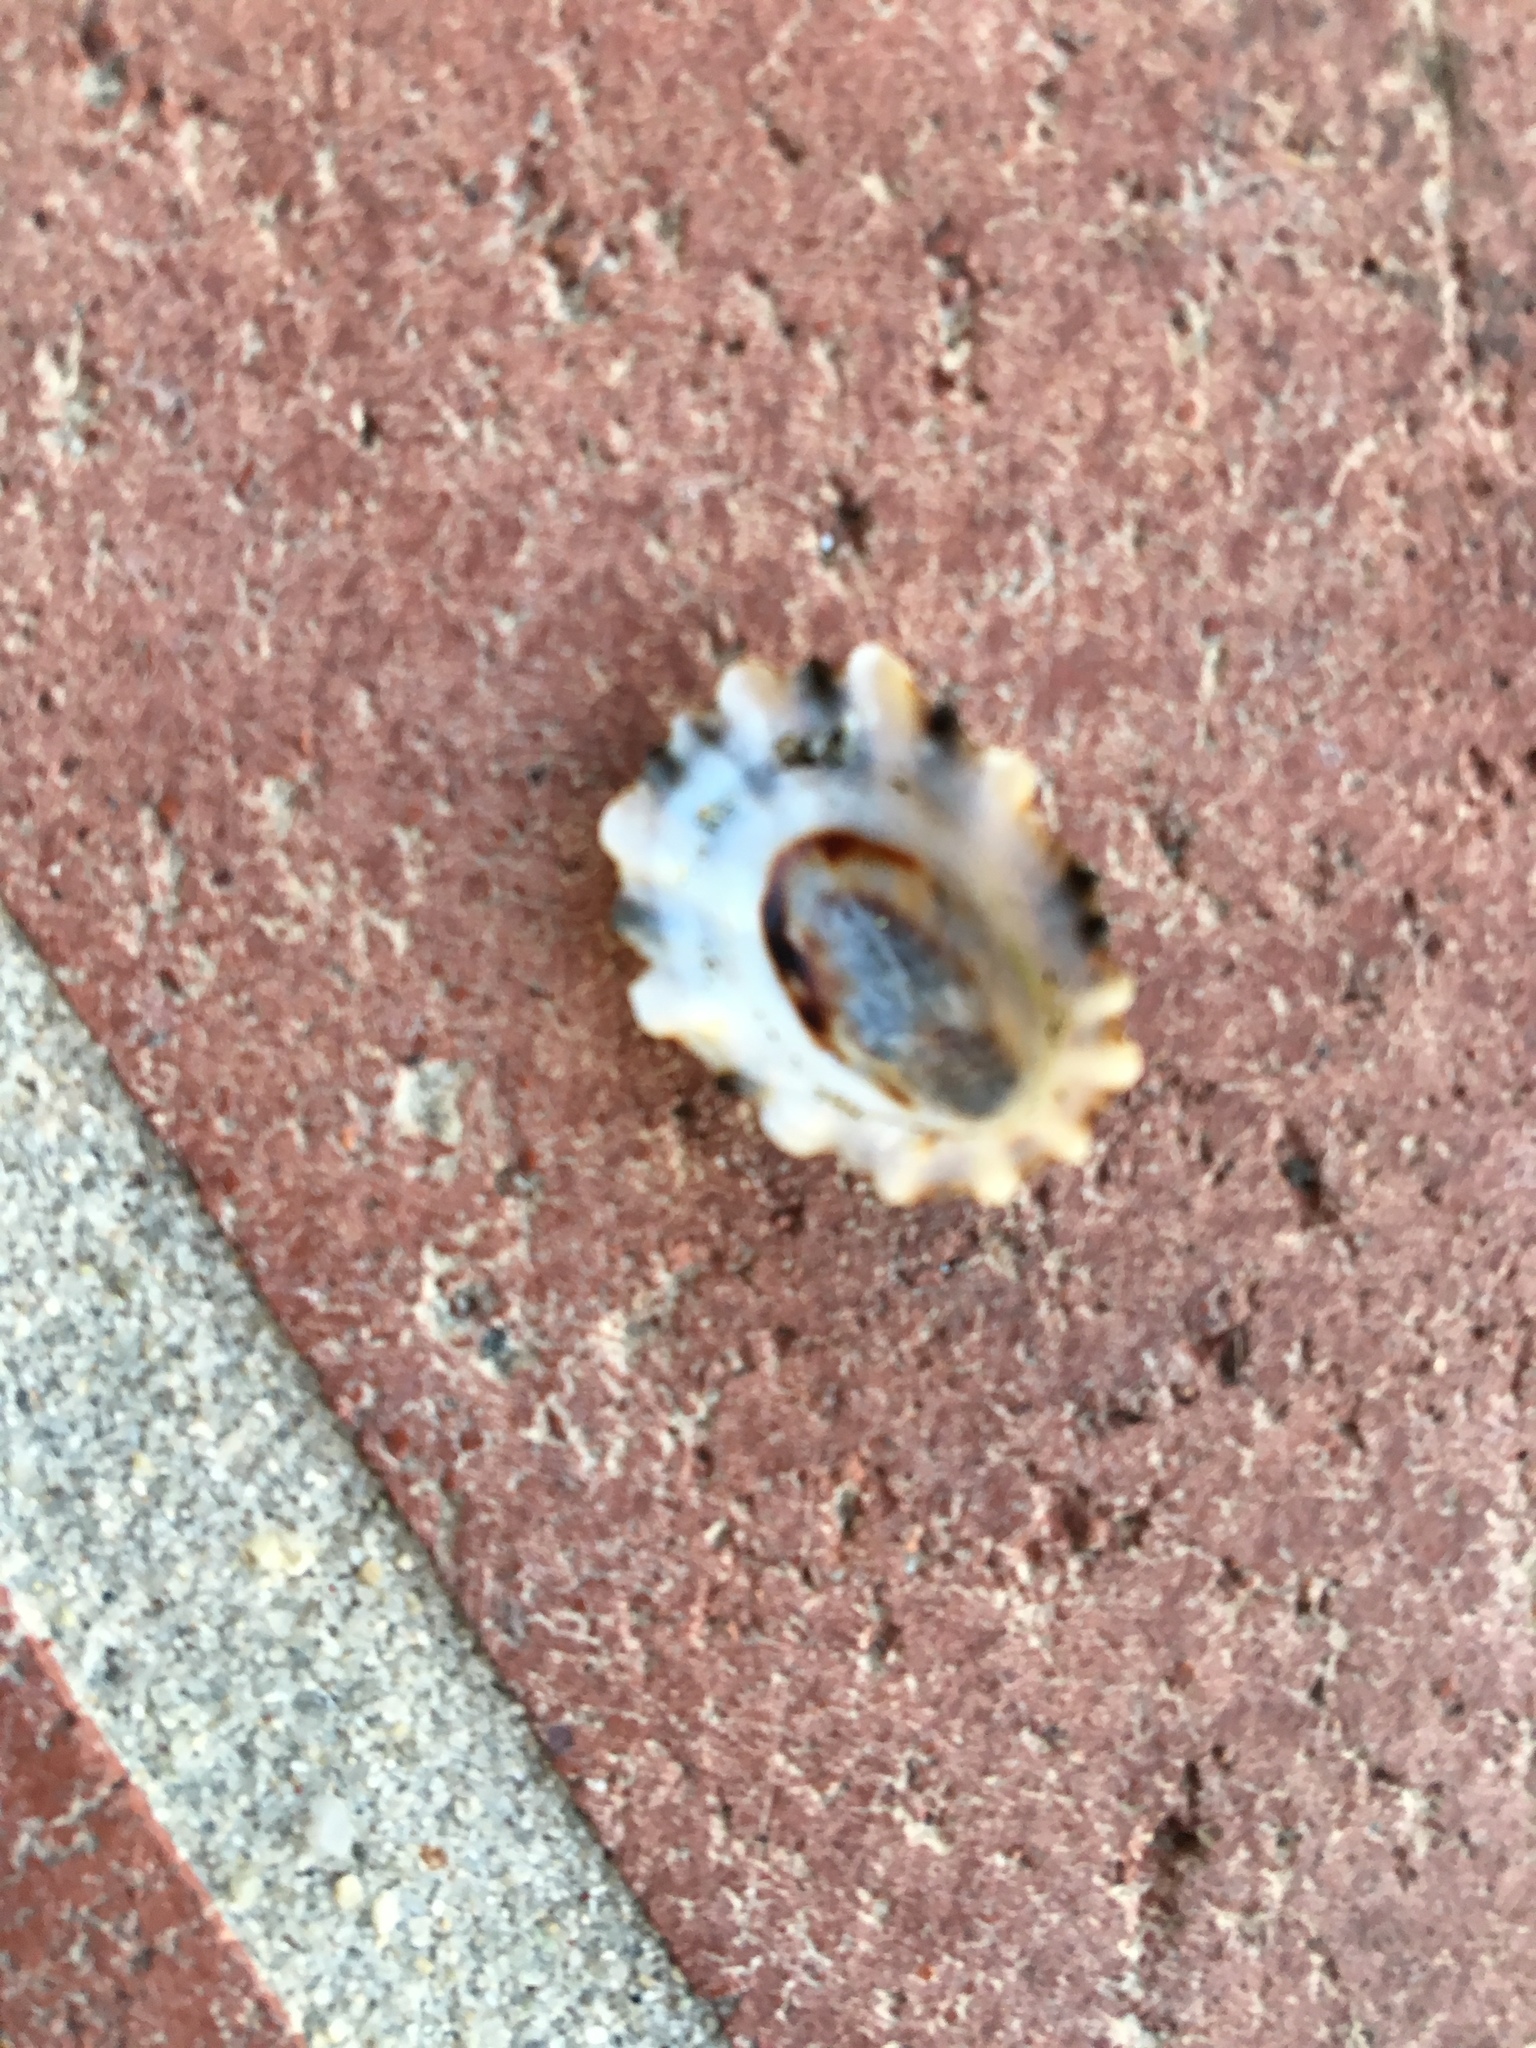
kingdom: Animalia
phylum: Mollusca
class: Gastropoda
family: Lottiidae
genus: Lottia
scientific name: Lottia scabra
